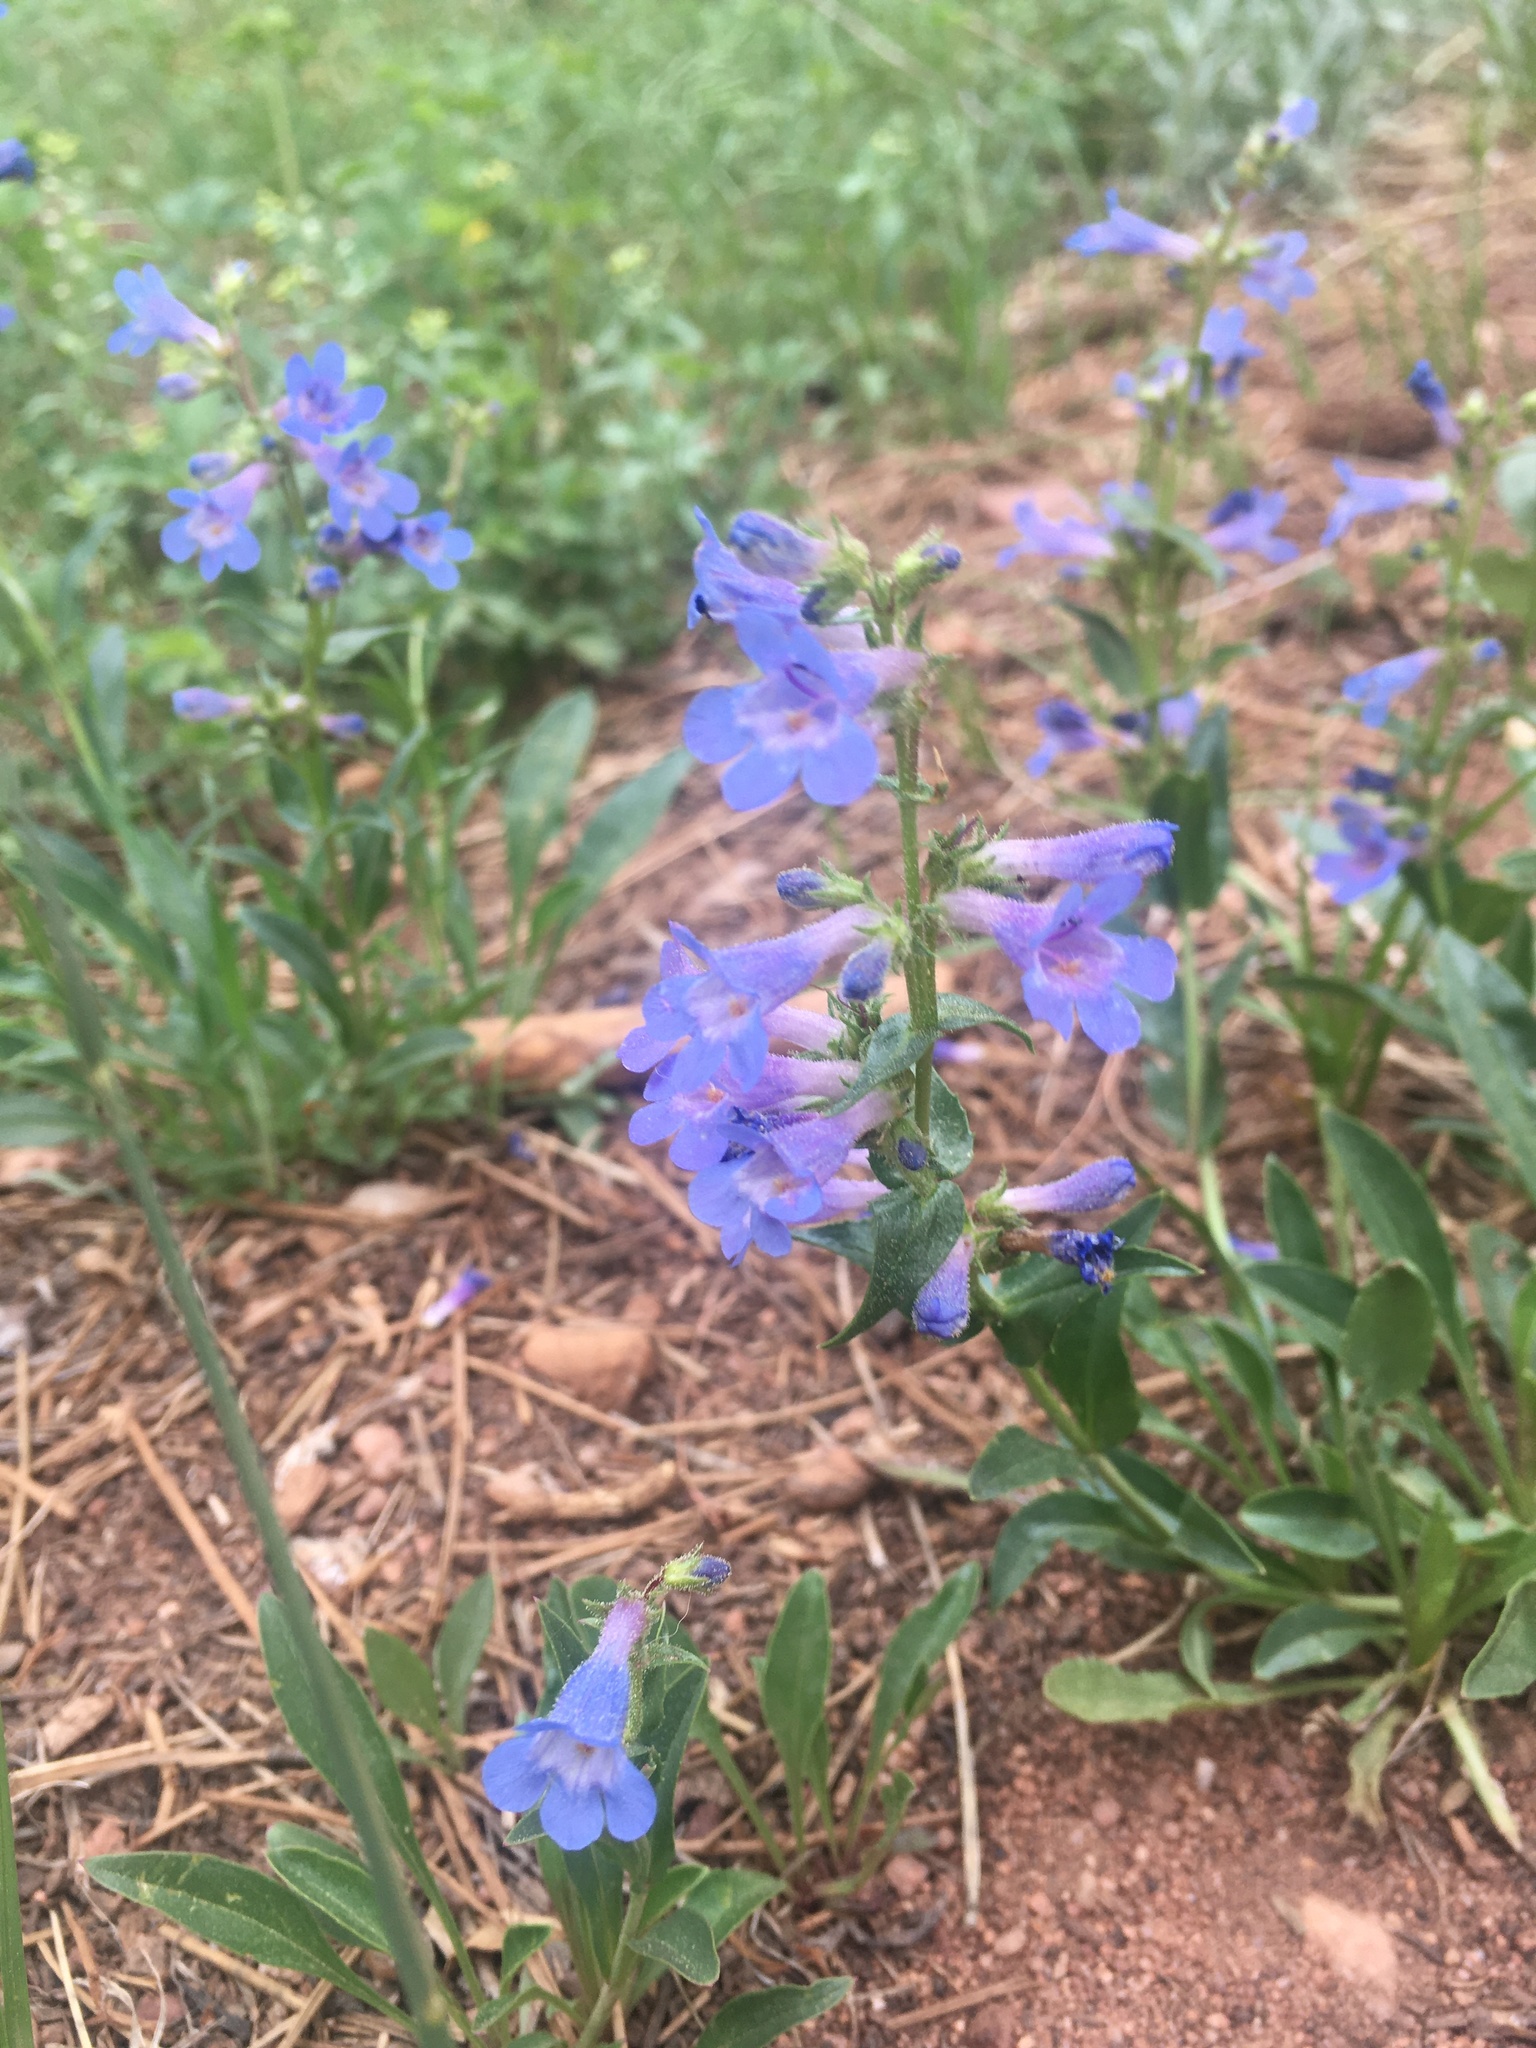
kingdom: Plantae
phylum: Tracheophyta
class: Magnoliopsida
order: Lamiales
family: Plantaginaceae
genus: Penstemon
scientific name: Penstemon virens
